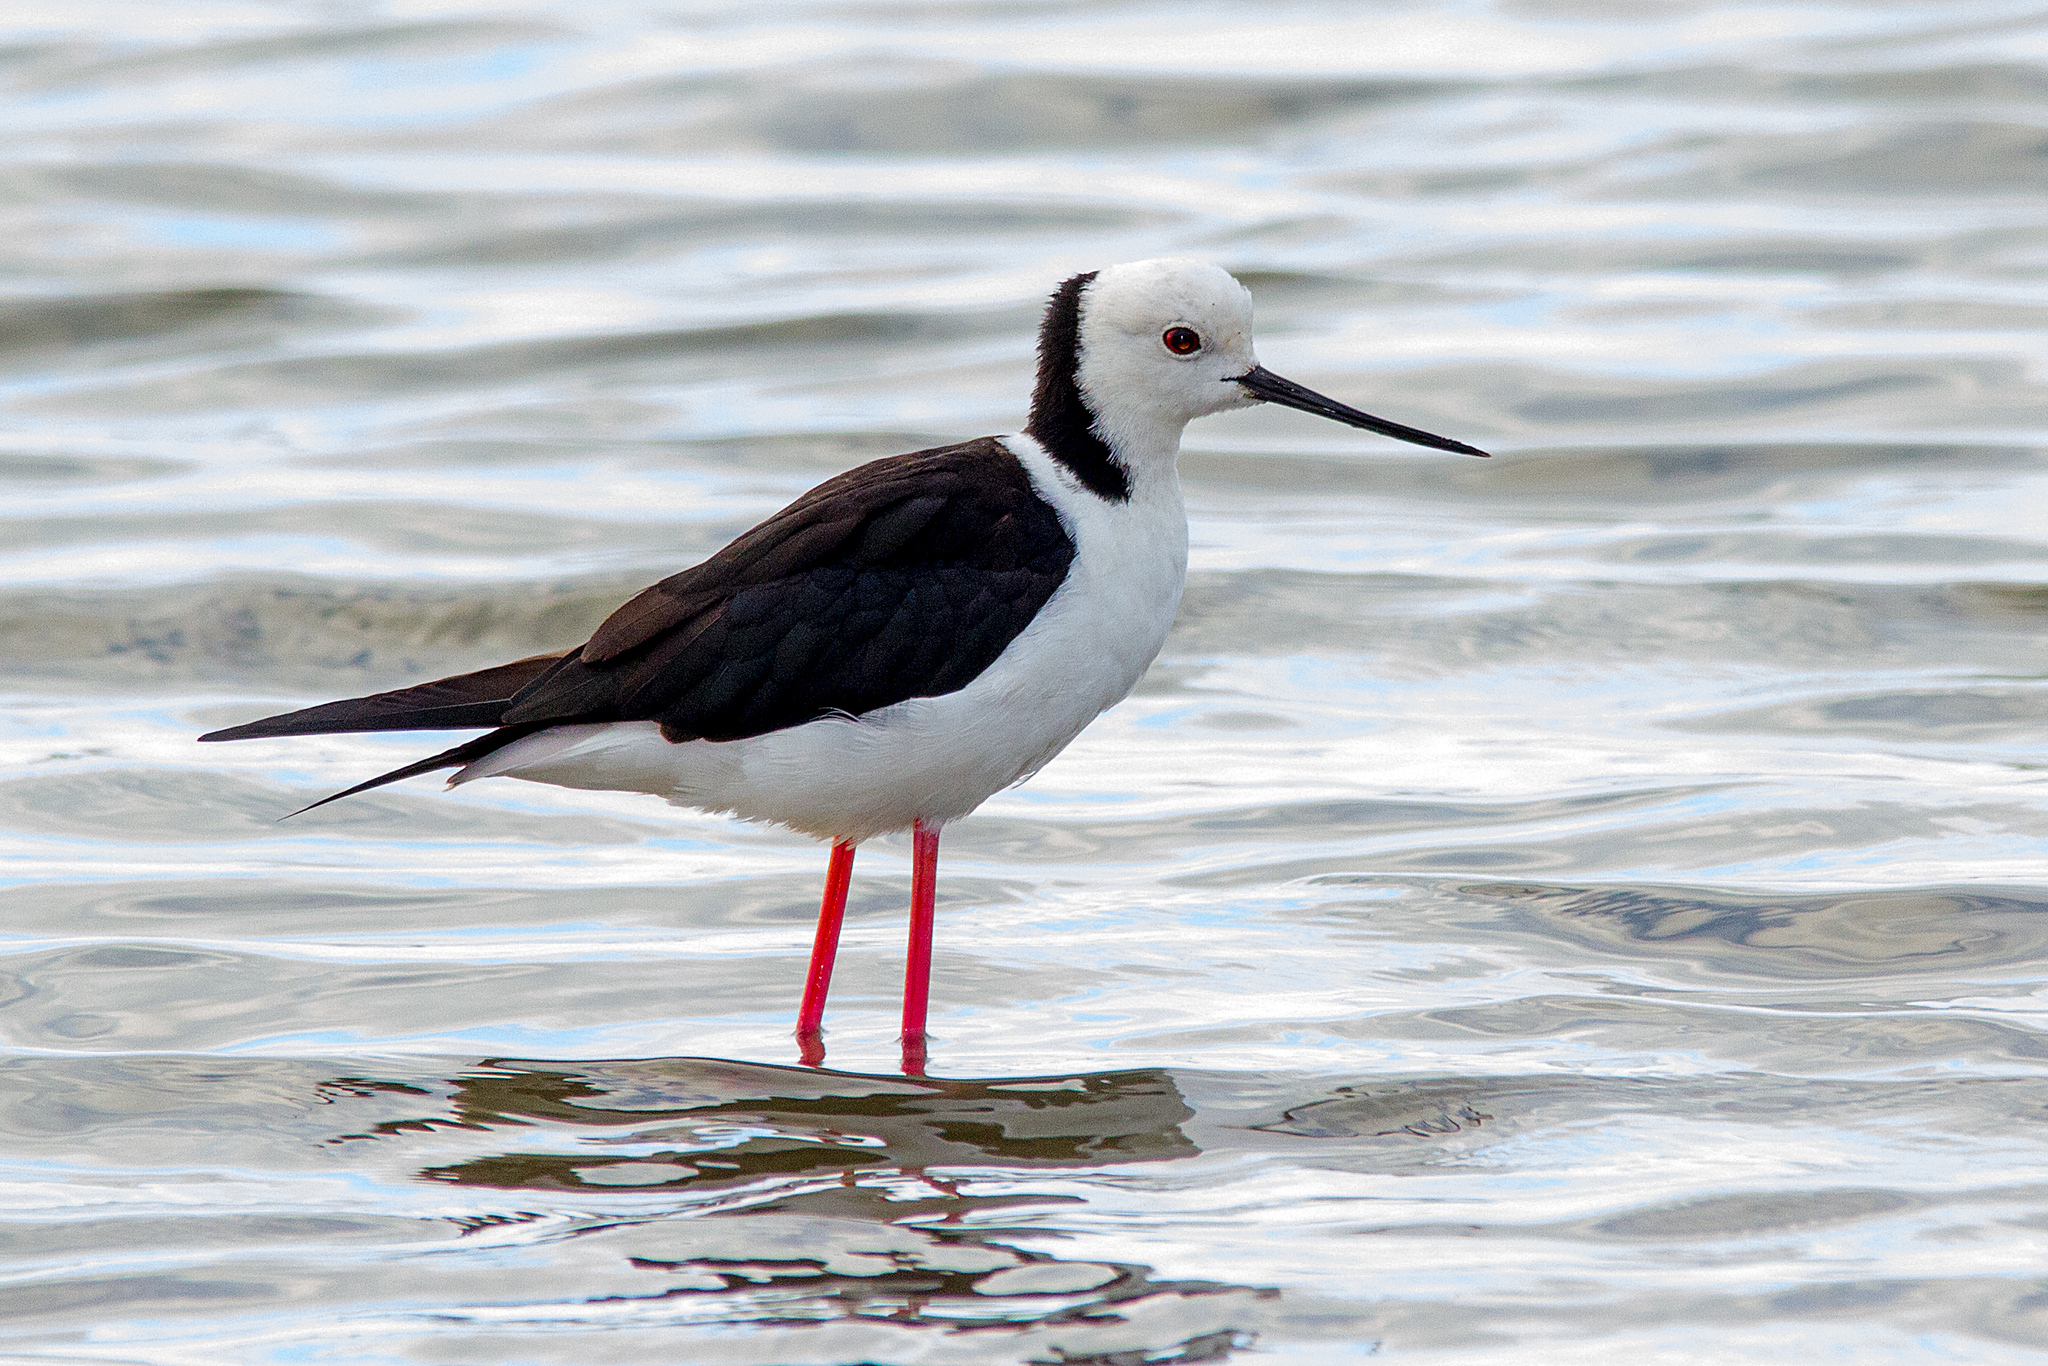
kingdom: Animalia
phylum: Chordata
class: Aves
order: Charadriiformes
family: Recurvirostridae
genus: Himantopus
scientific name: Himantopus leucocephalus
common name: White-headed stilt
